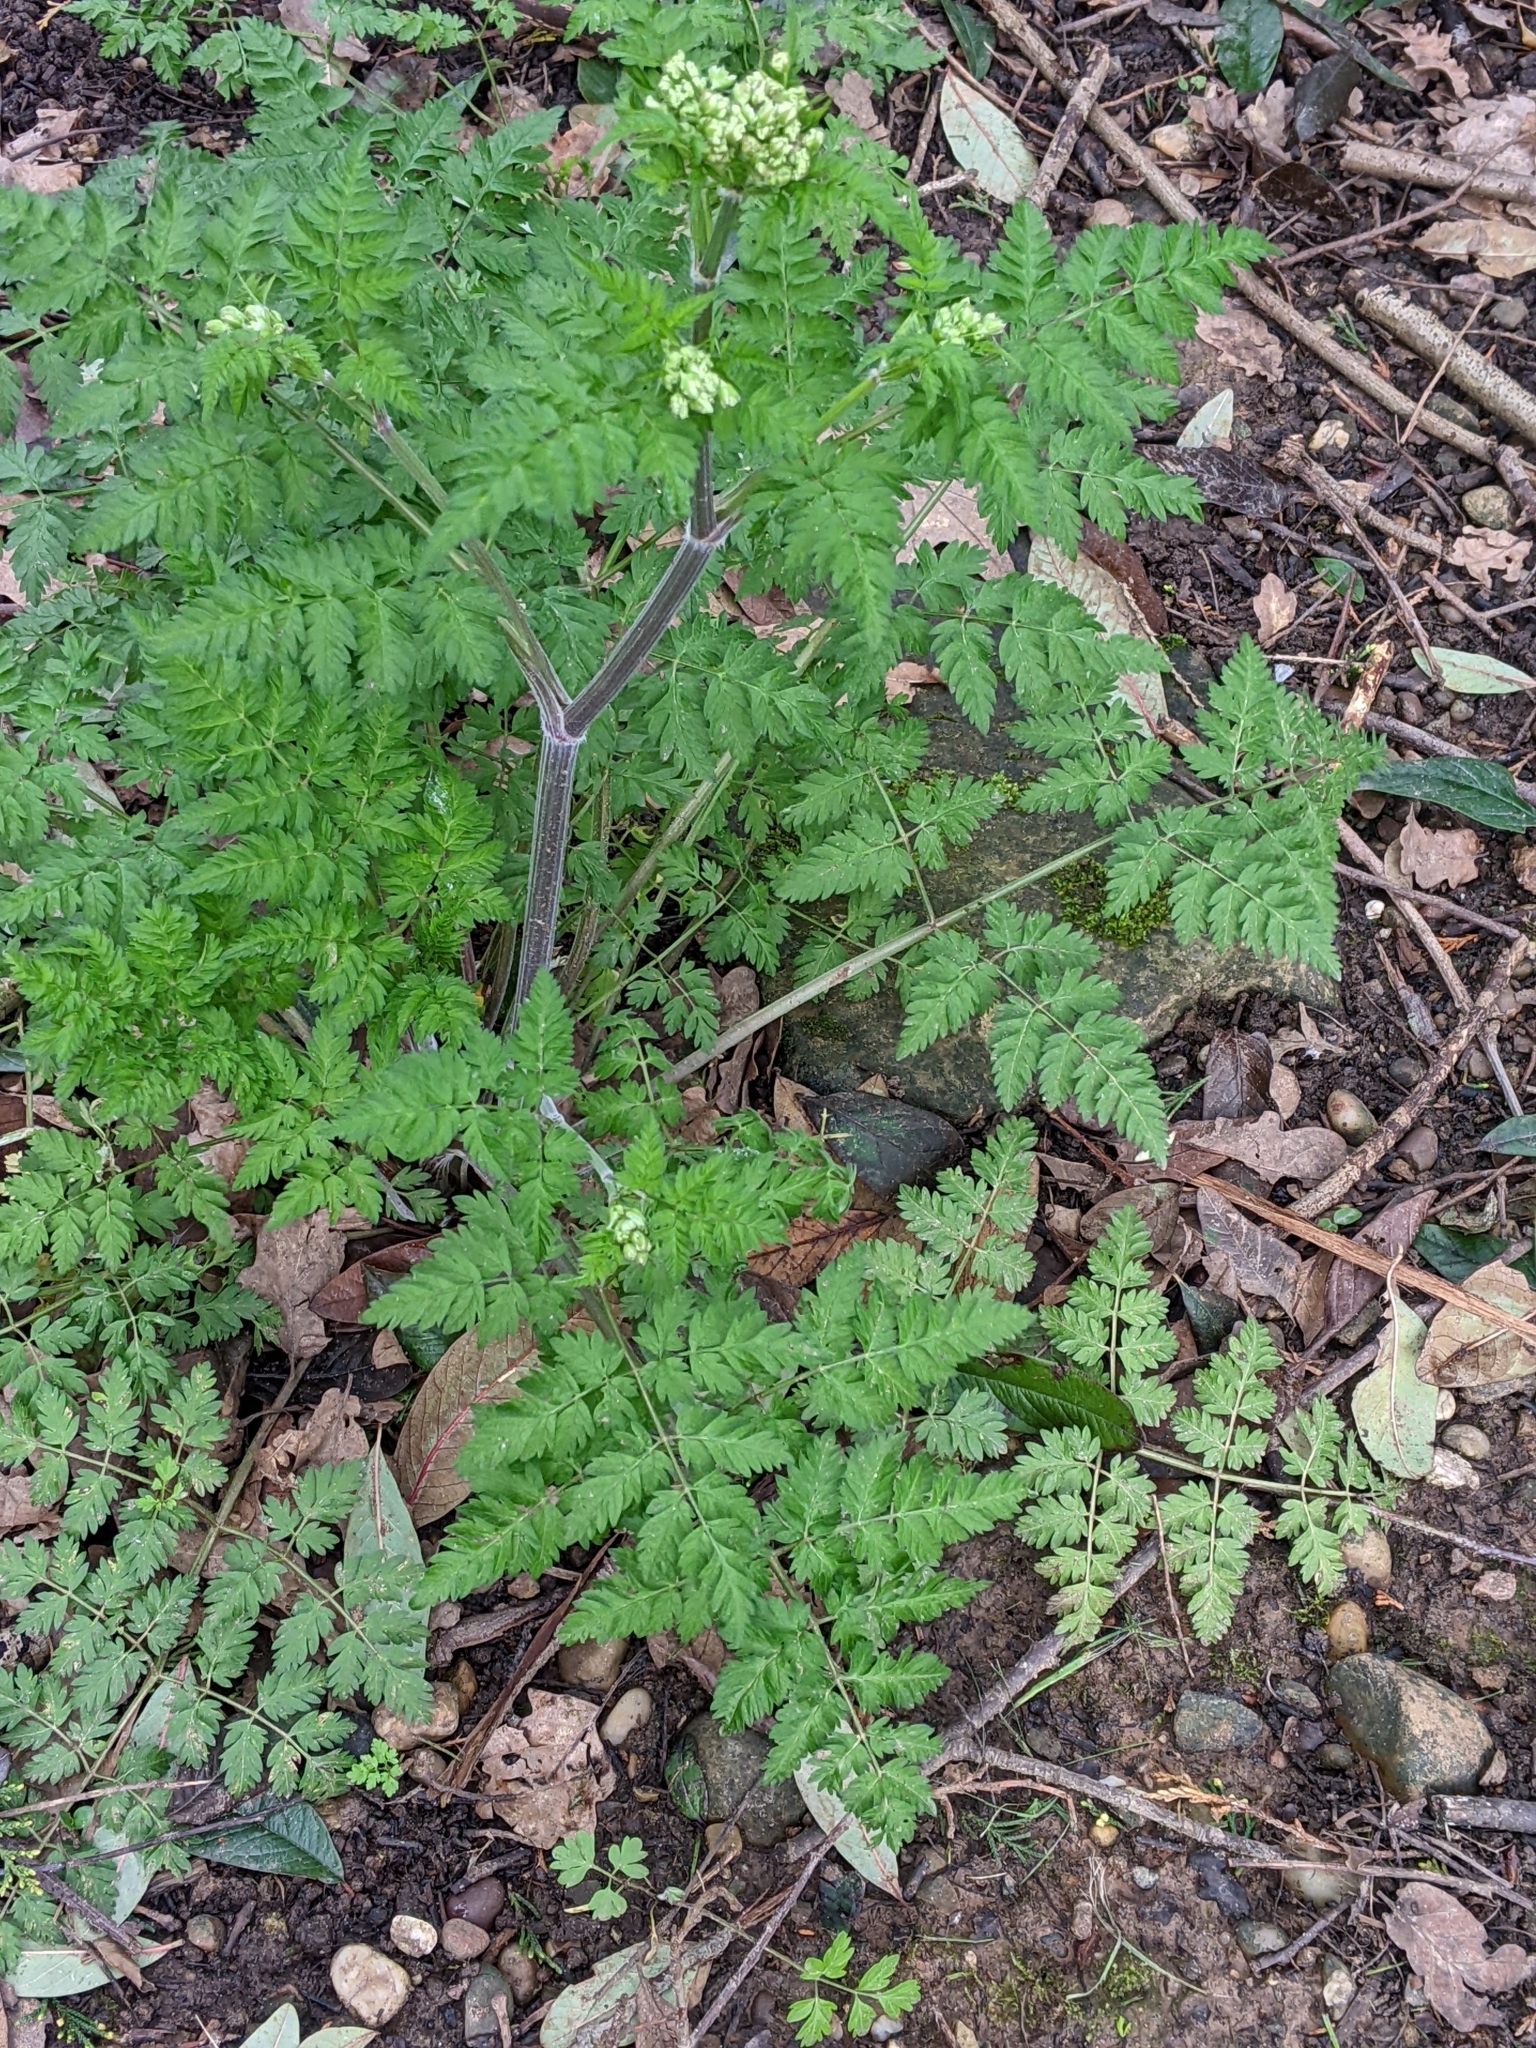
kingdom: Plantae
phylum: Tracheophyta
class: Magnoliopsida
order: Apiales
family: Apiaceae
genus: Anthriscus
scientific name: Anthriscus sylvestris
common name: Cow parsley
